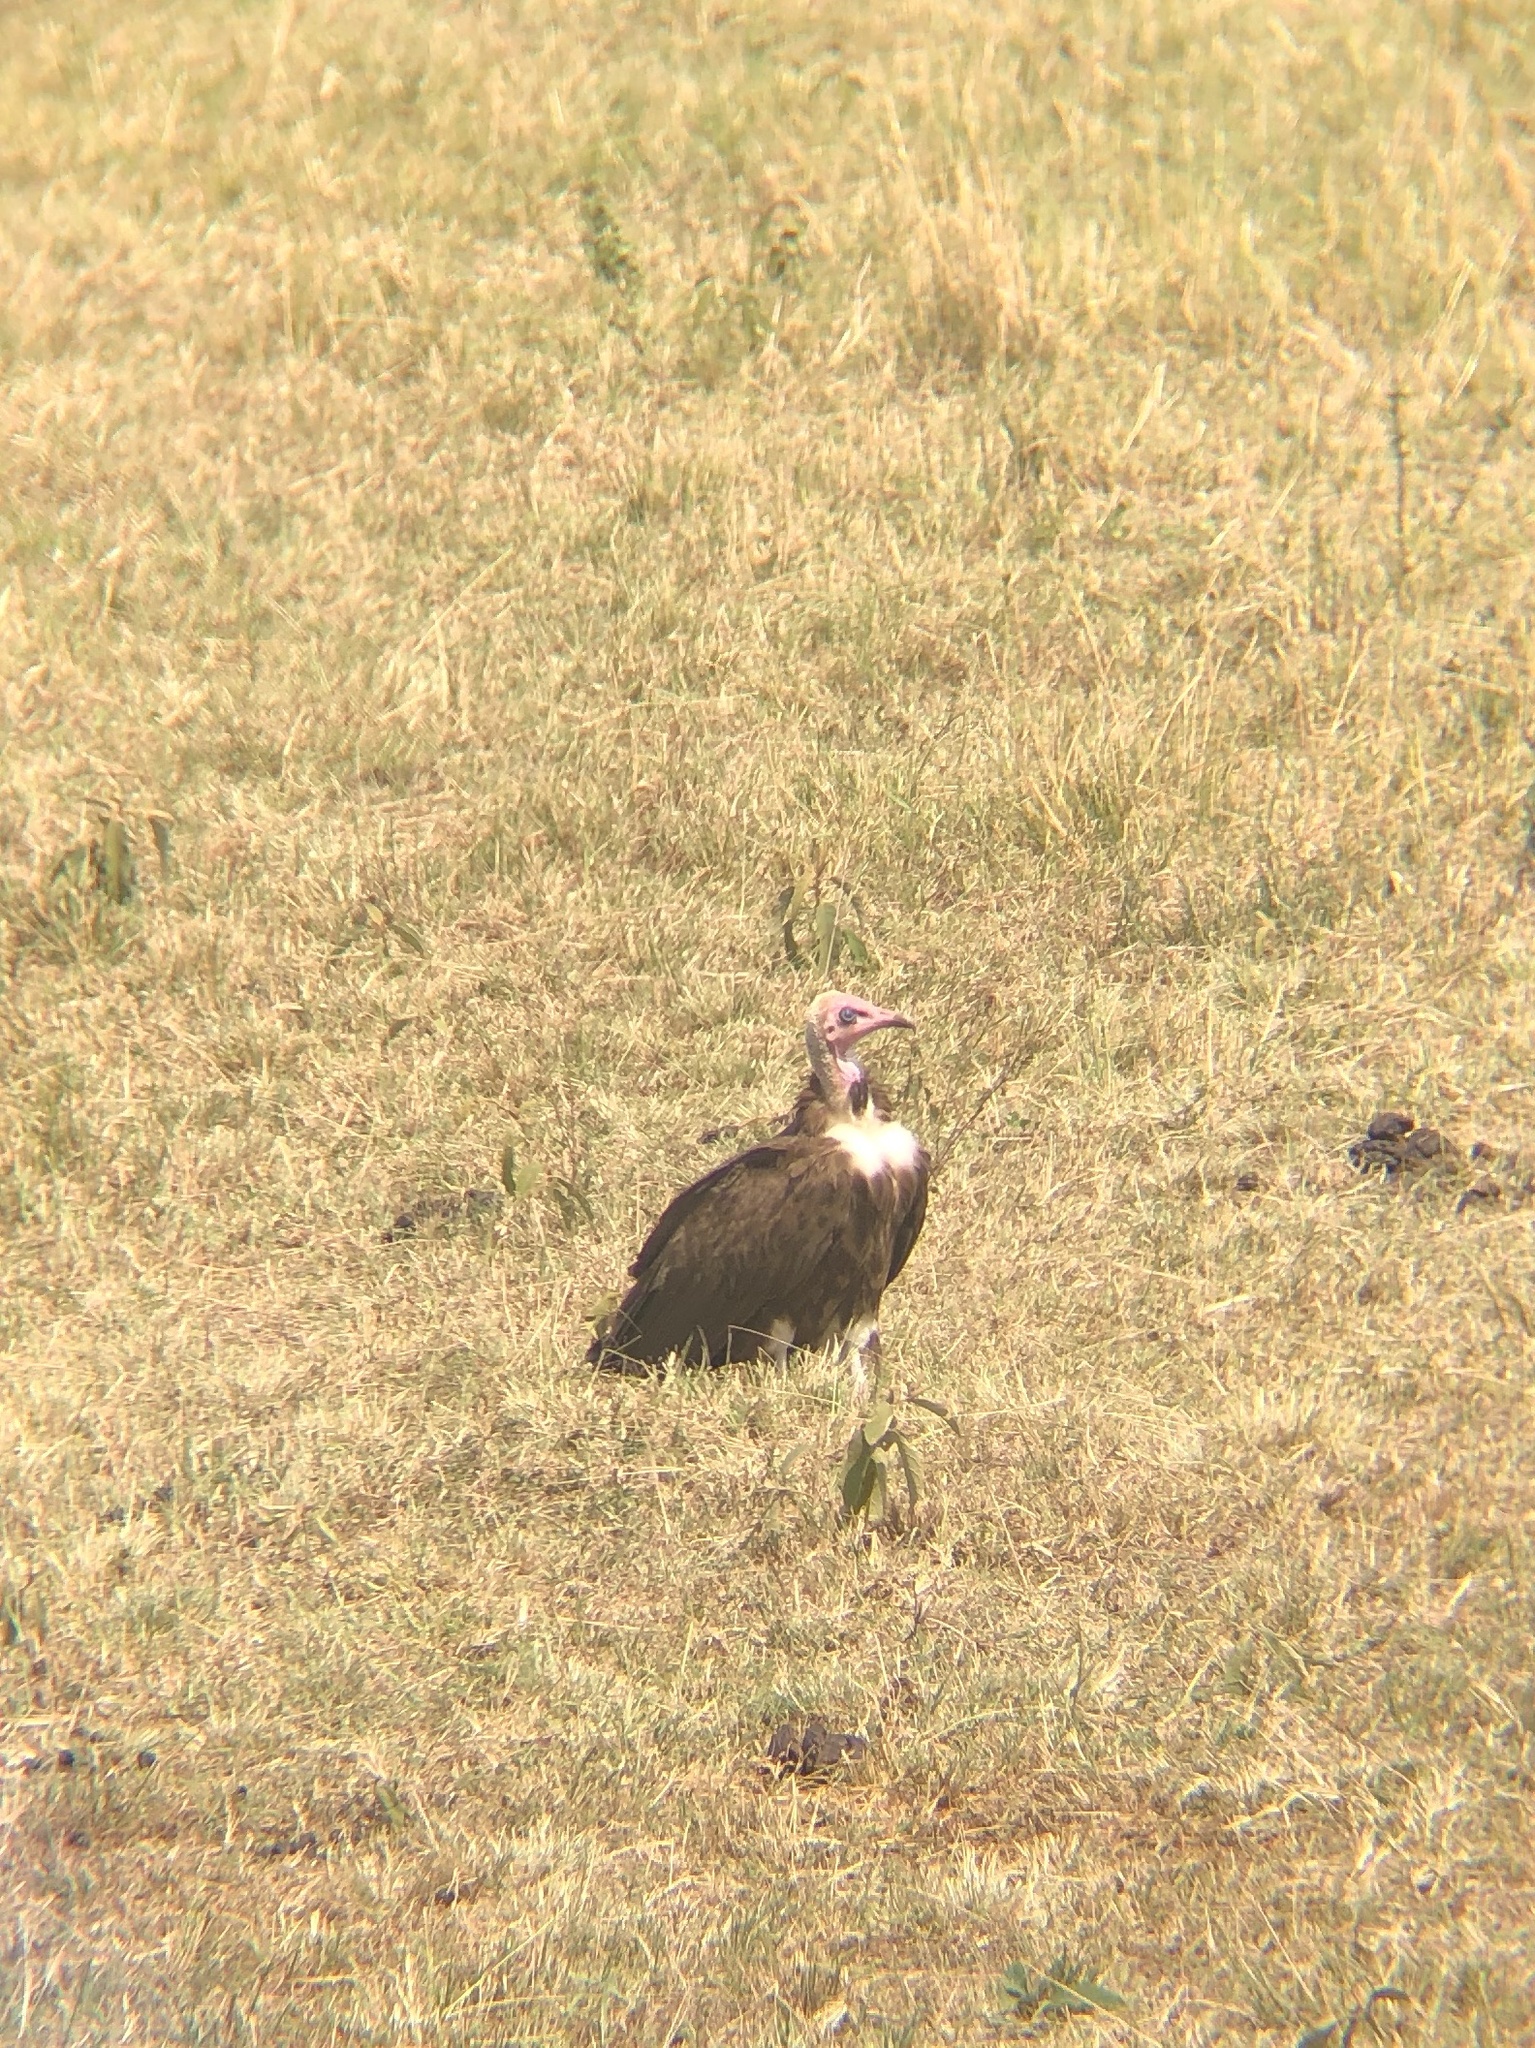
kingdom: Animalia
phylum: Chordata
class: Aves
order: Accipitriformes
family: Accipitridae
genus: Necrosyrtes
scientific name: Necrosyrtes monachus
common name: Hooded vulture
